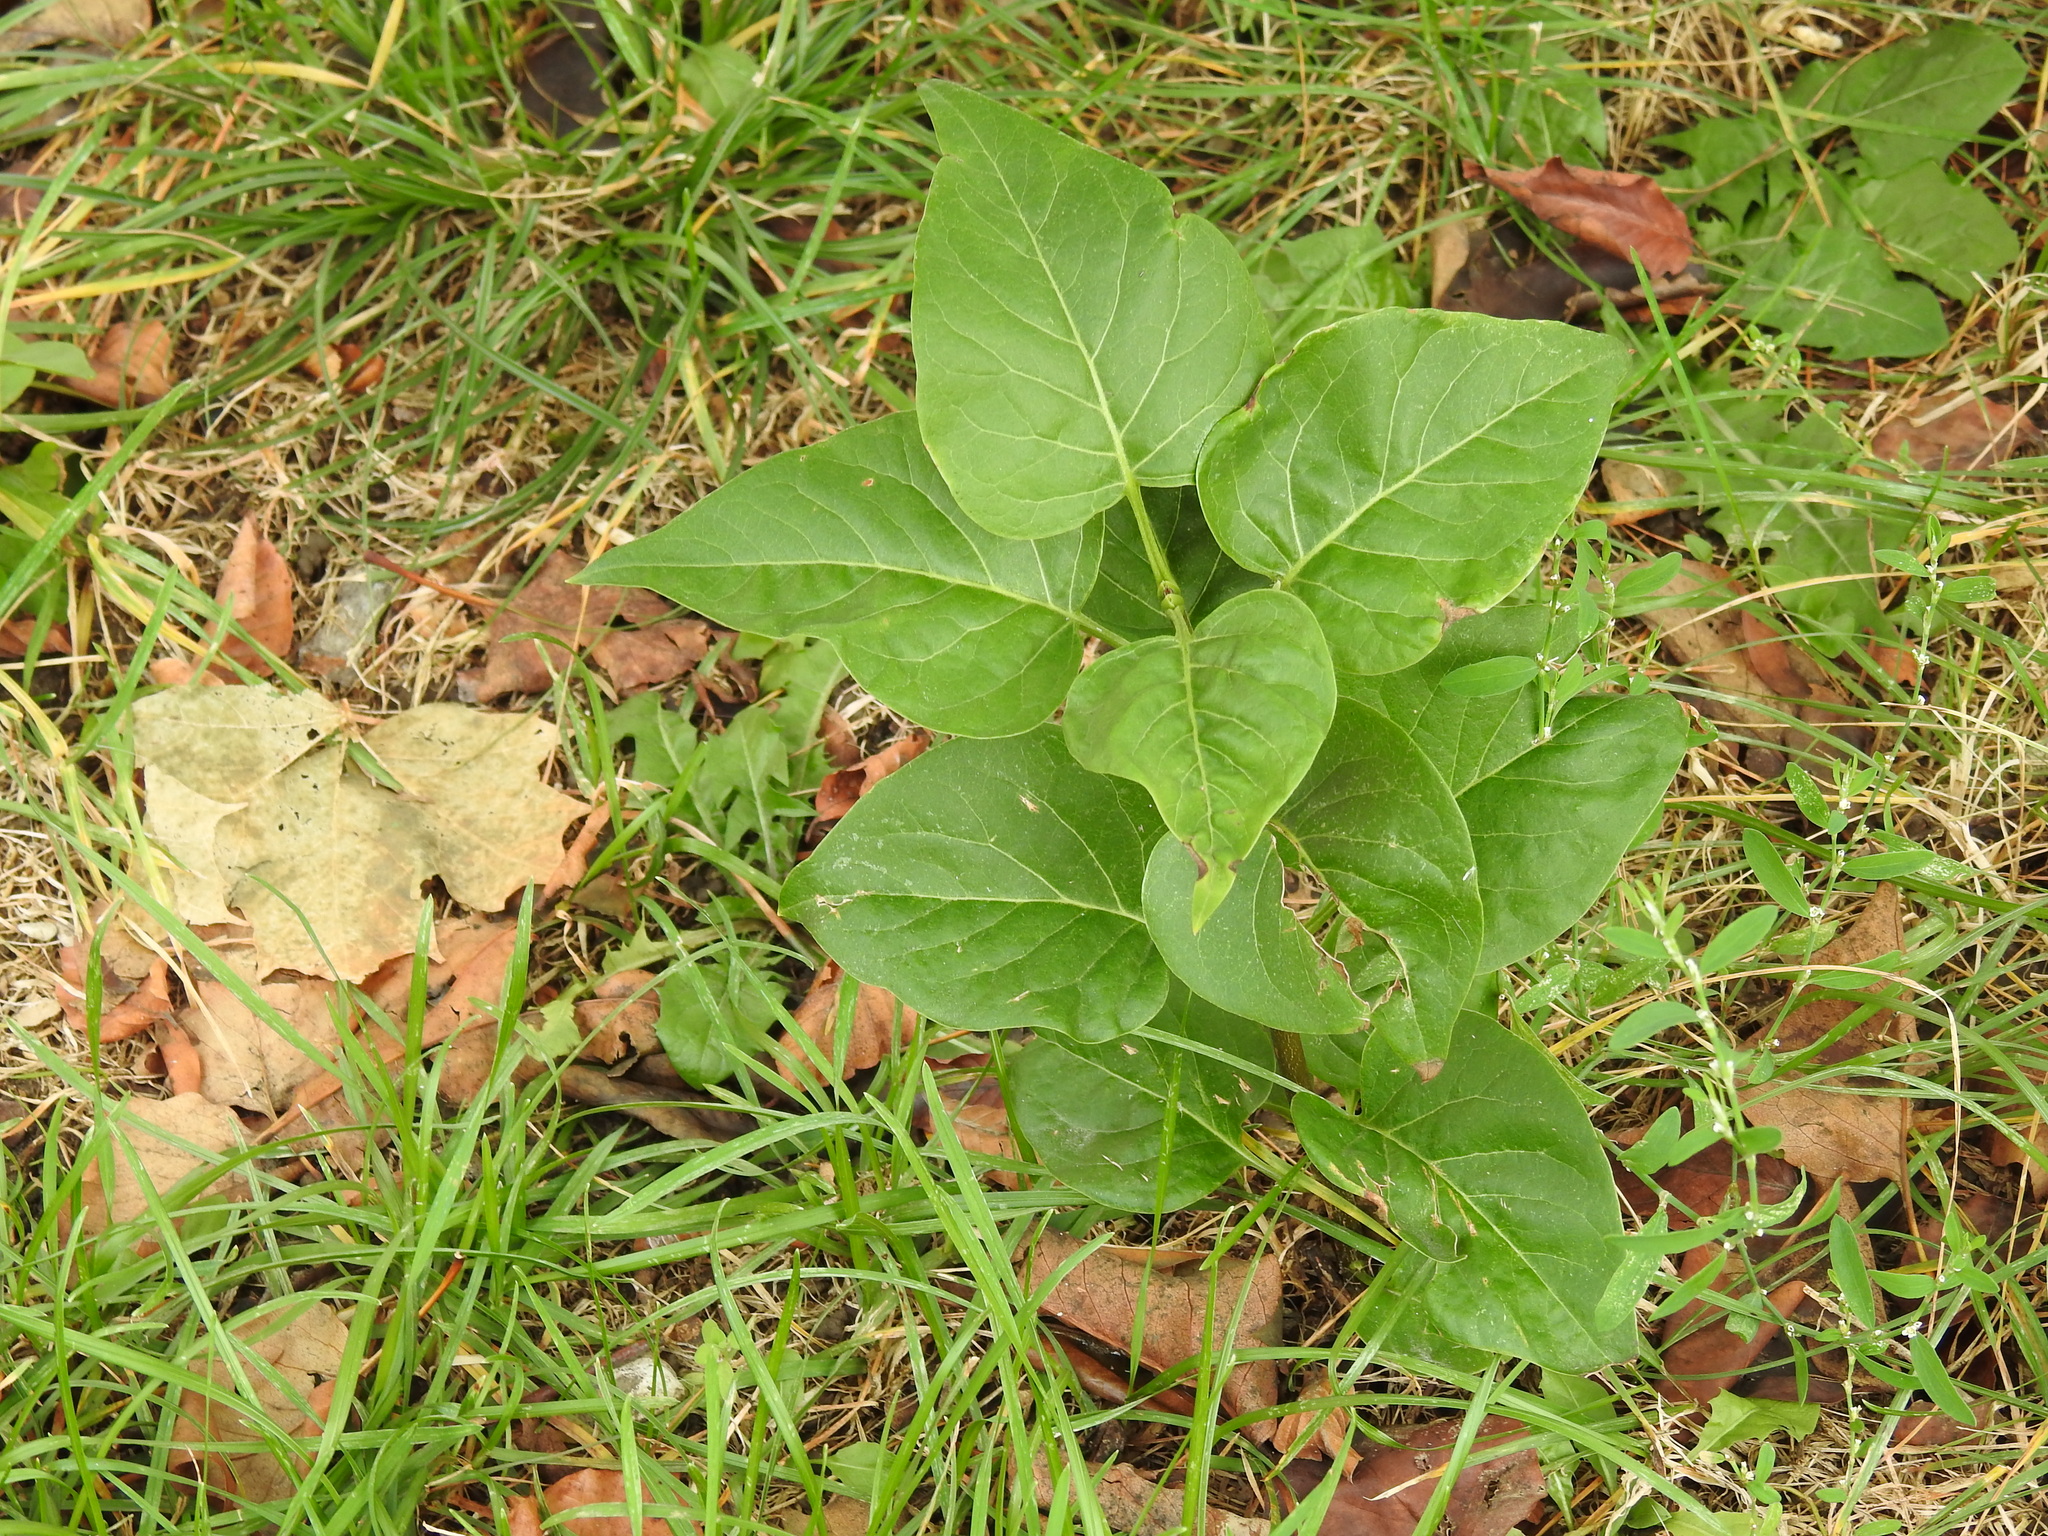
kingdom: Plantae
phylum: Tracheophyta
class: Magnoliopsida
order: Lamiales
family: Oleaceae
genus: Syringa
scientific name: Syringa vulgaris
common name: Common lilac
